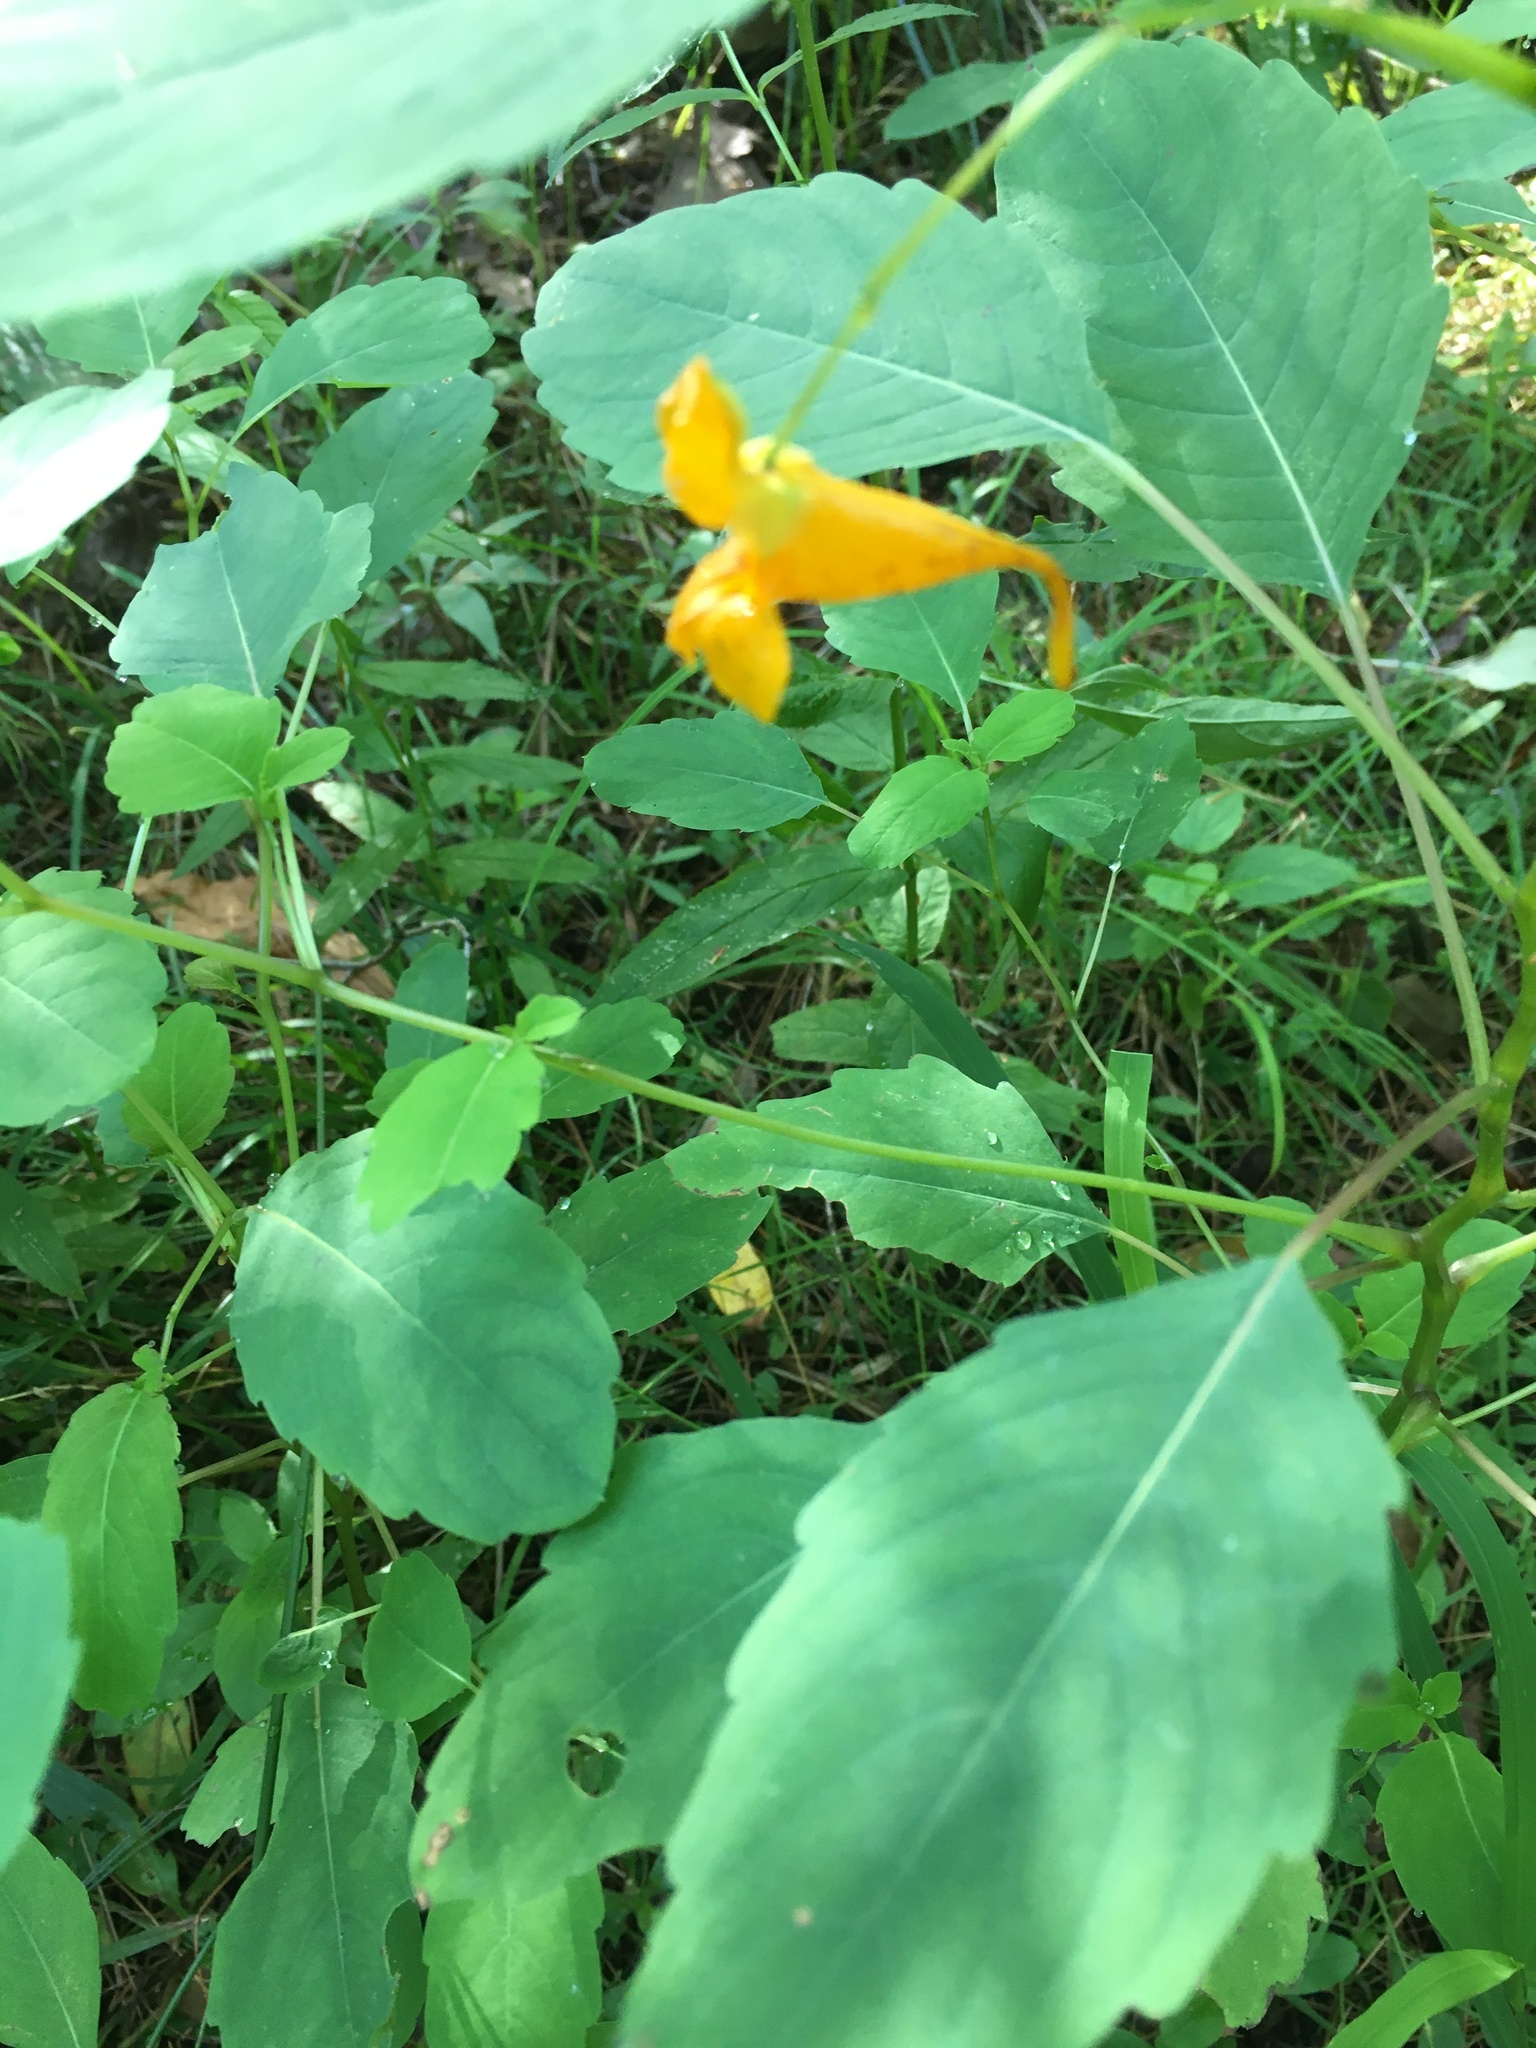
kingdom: Plantae
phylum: Tracheophyta
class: Magnoliopsida
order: Ericales
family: Balsaminaceae
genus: Impatiens
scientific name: Impatiens capensis
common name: Orange balsam
